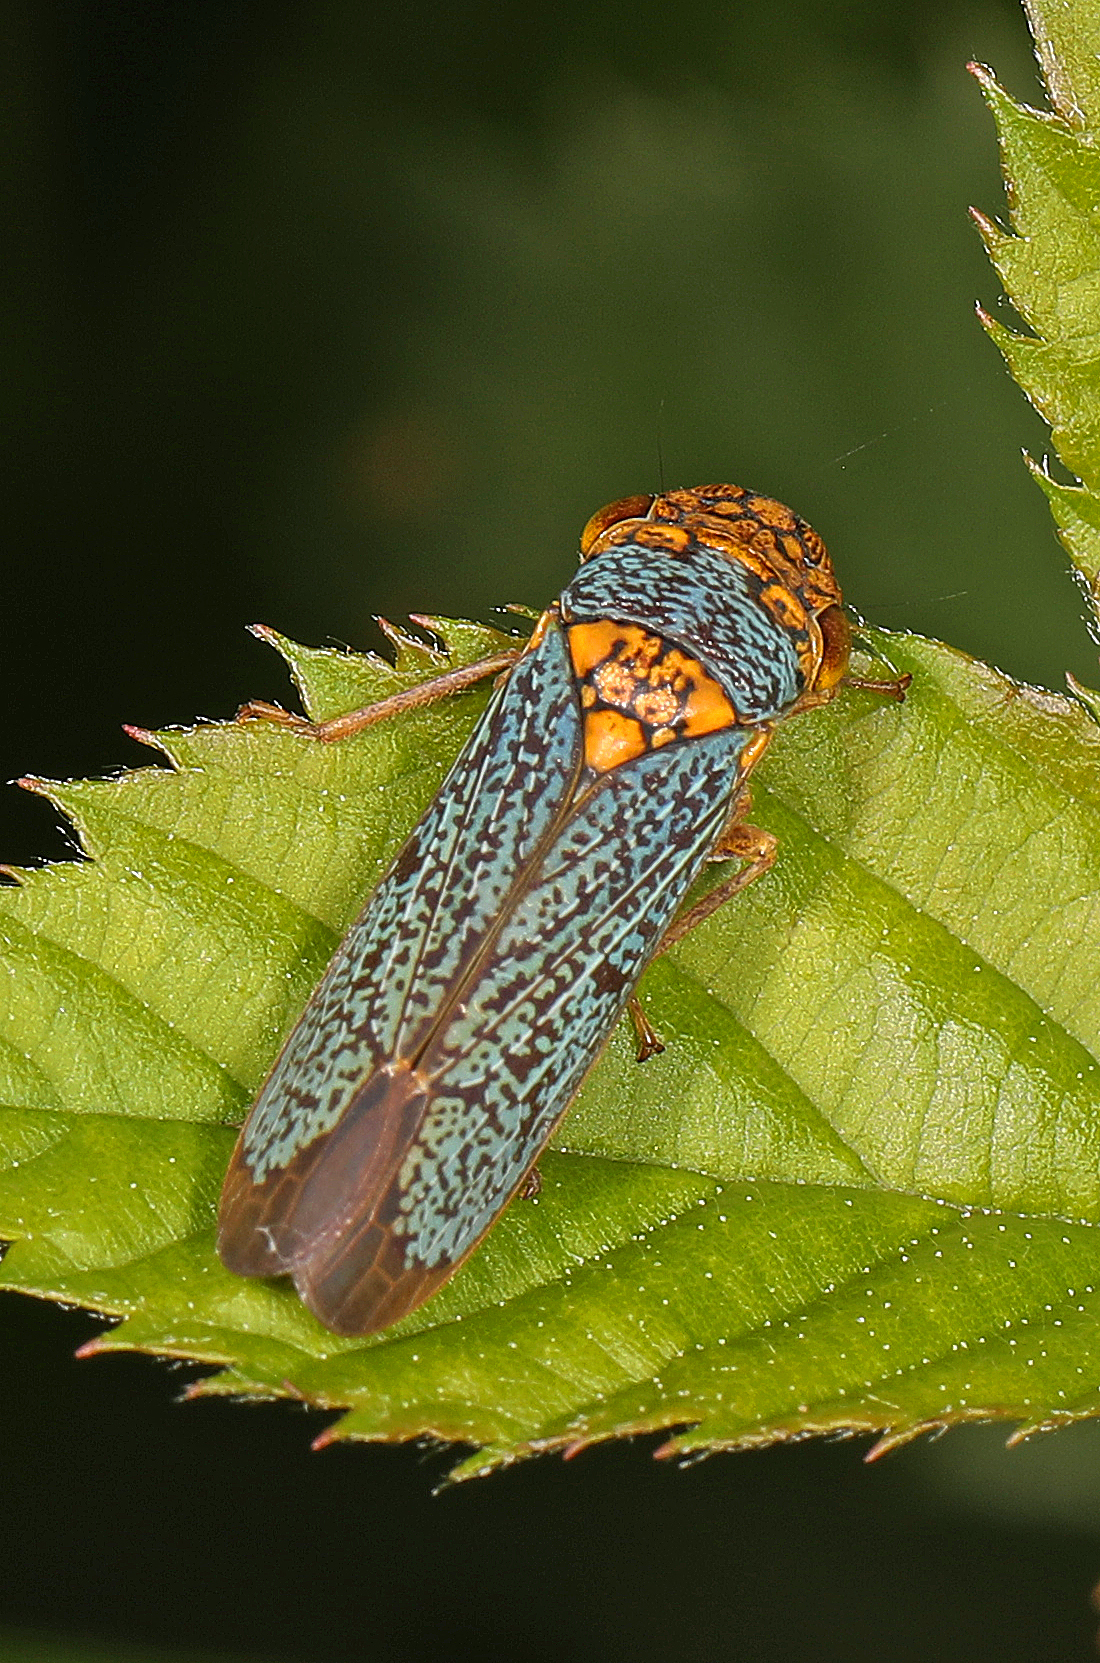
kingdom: Animalia
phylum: Arthropoda
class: Insecta
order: Hemiptera
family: Cicadellidae
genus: Oncometopia
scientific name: Oncometopia orbona
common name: Broad-headed sharpshooter
